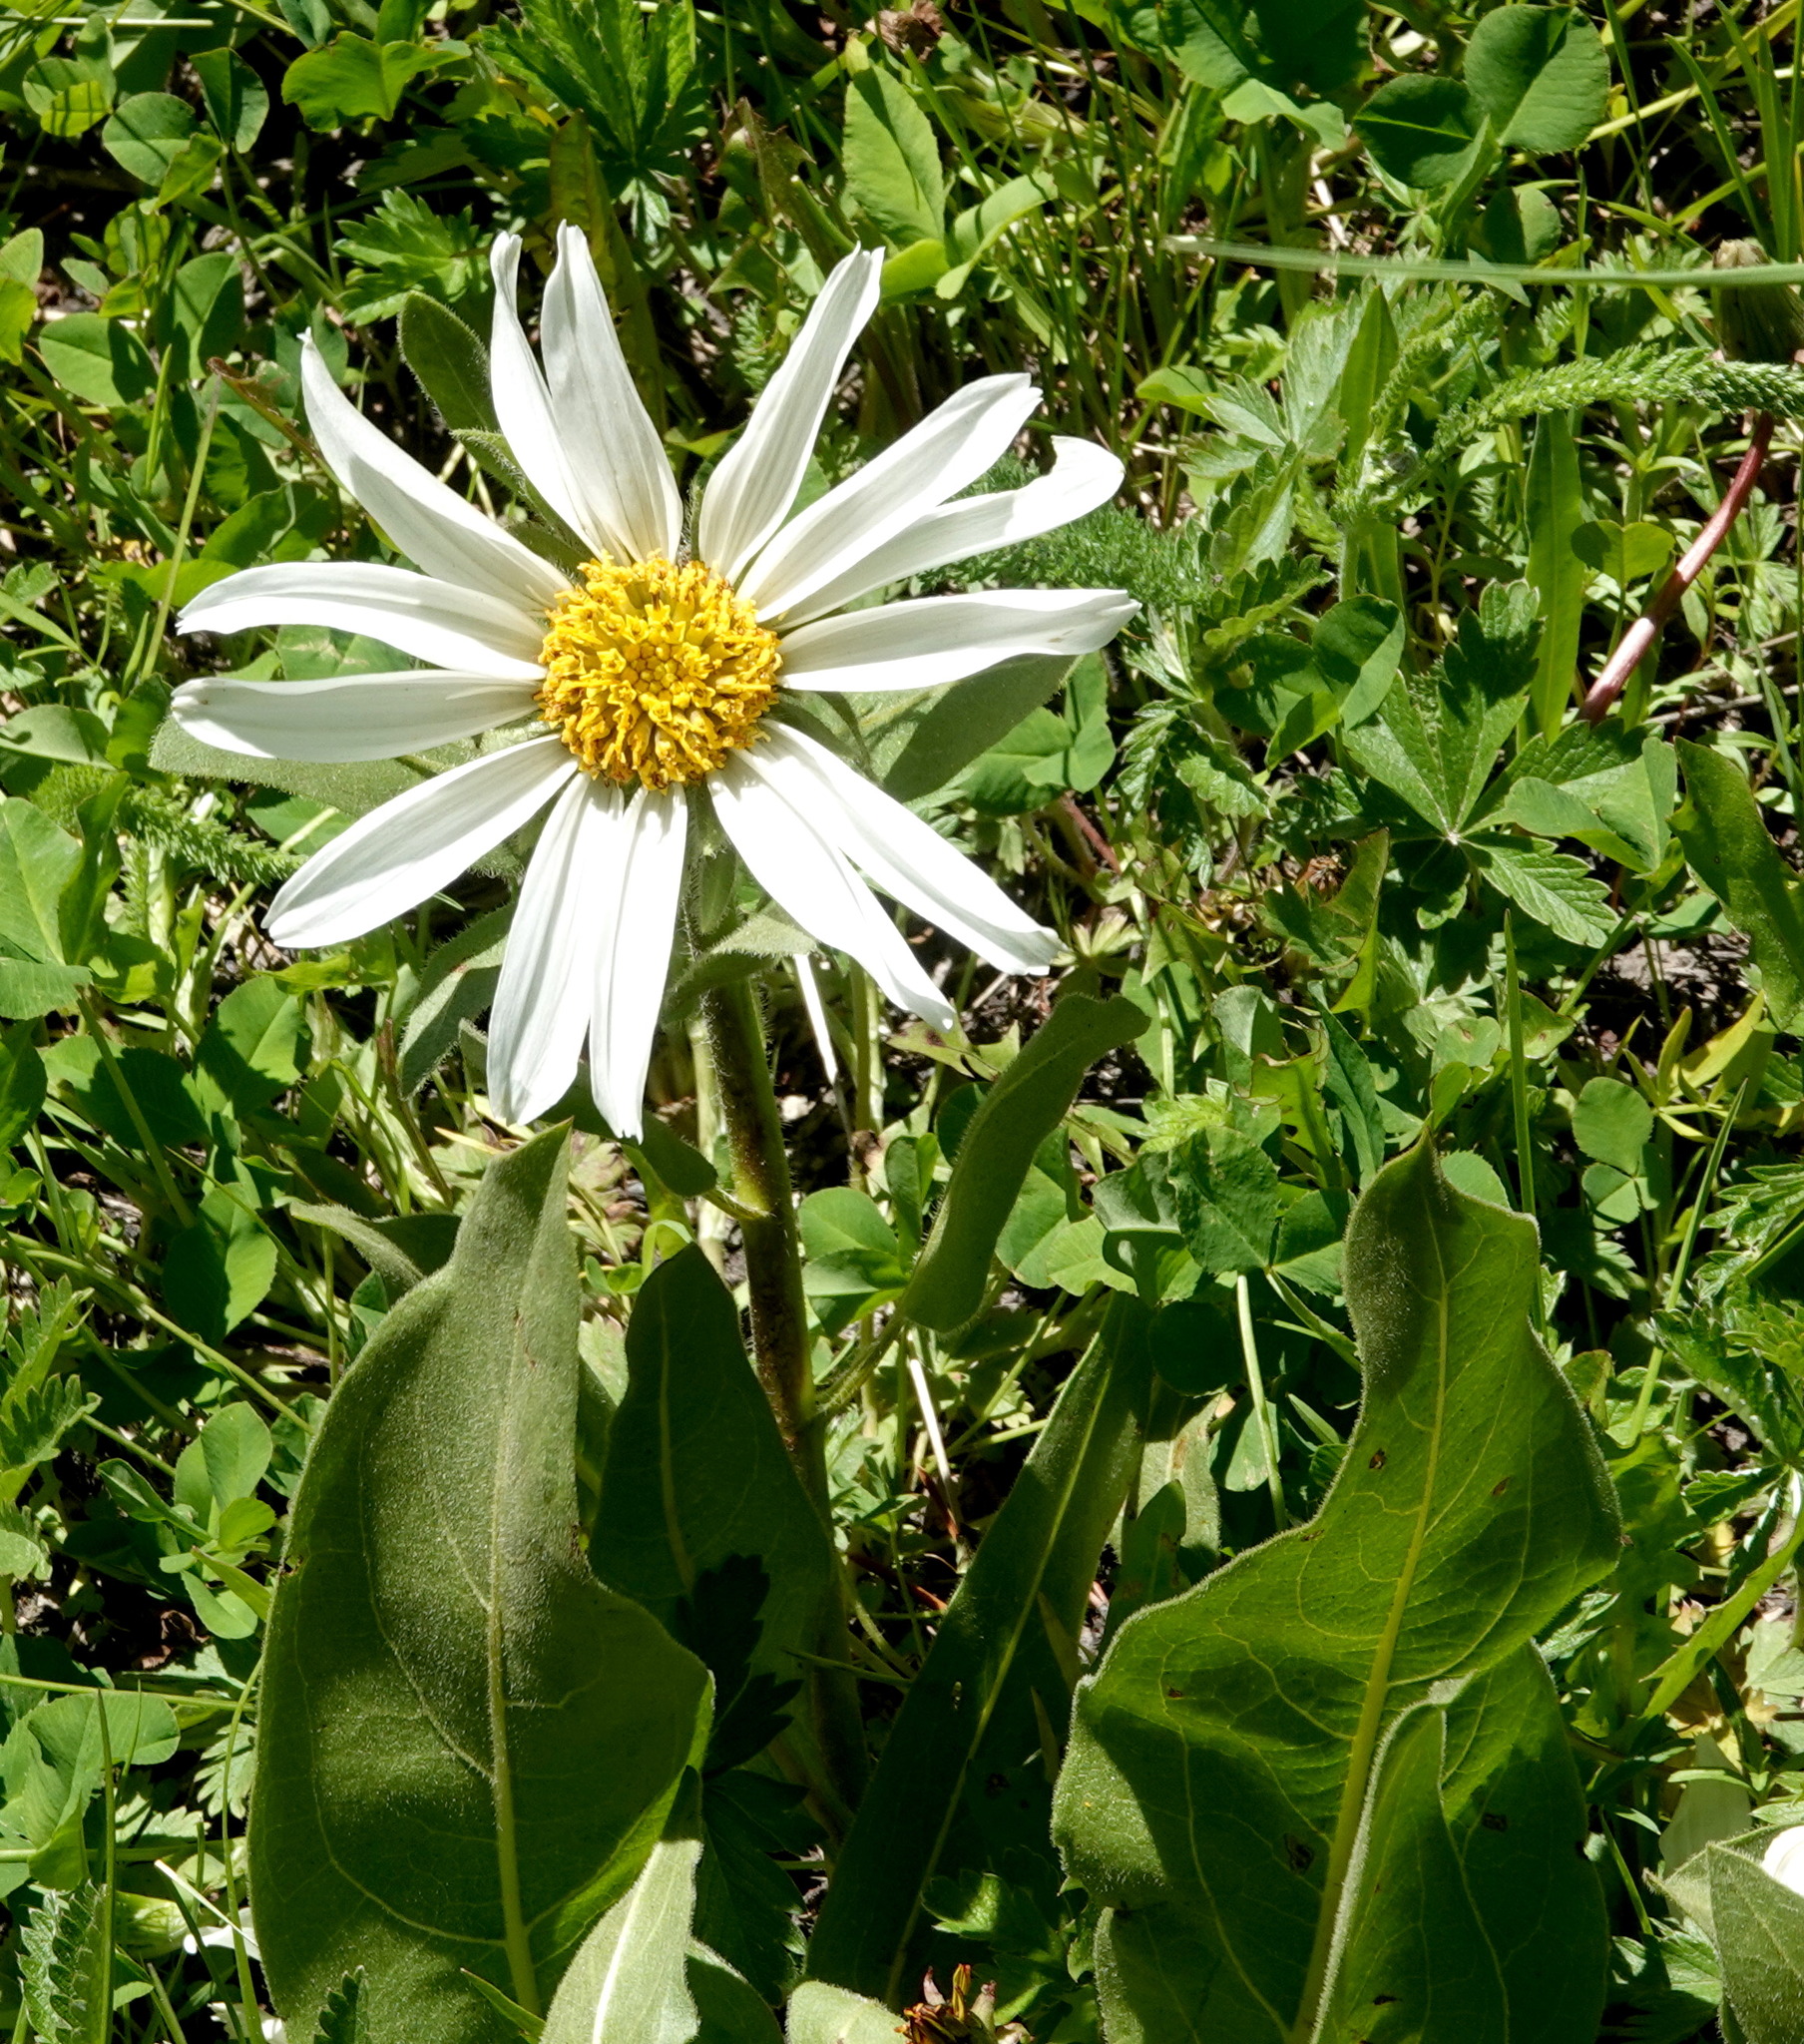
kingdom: Plantae
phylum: Tracheophyta
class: Magnoliopsida
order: Asterales
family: Asteraceae
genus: Wyethia
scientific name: Wyethia helianthoides
